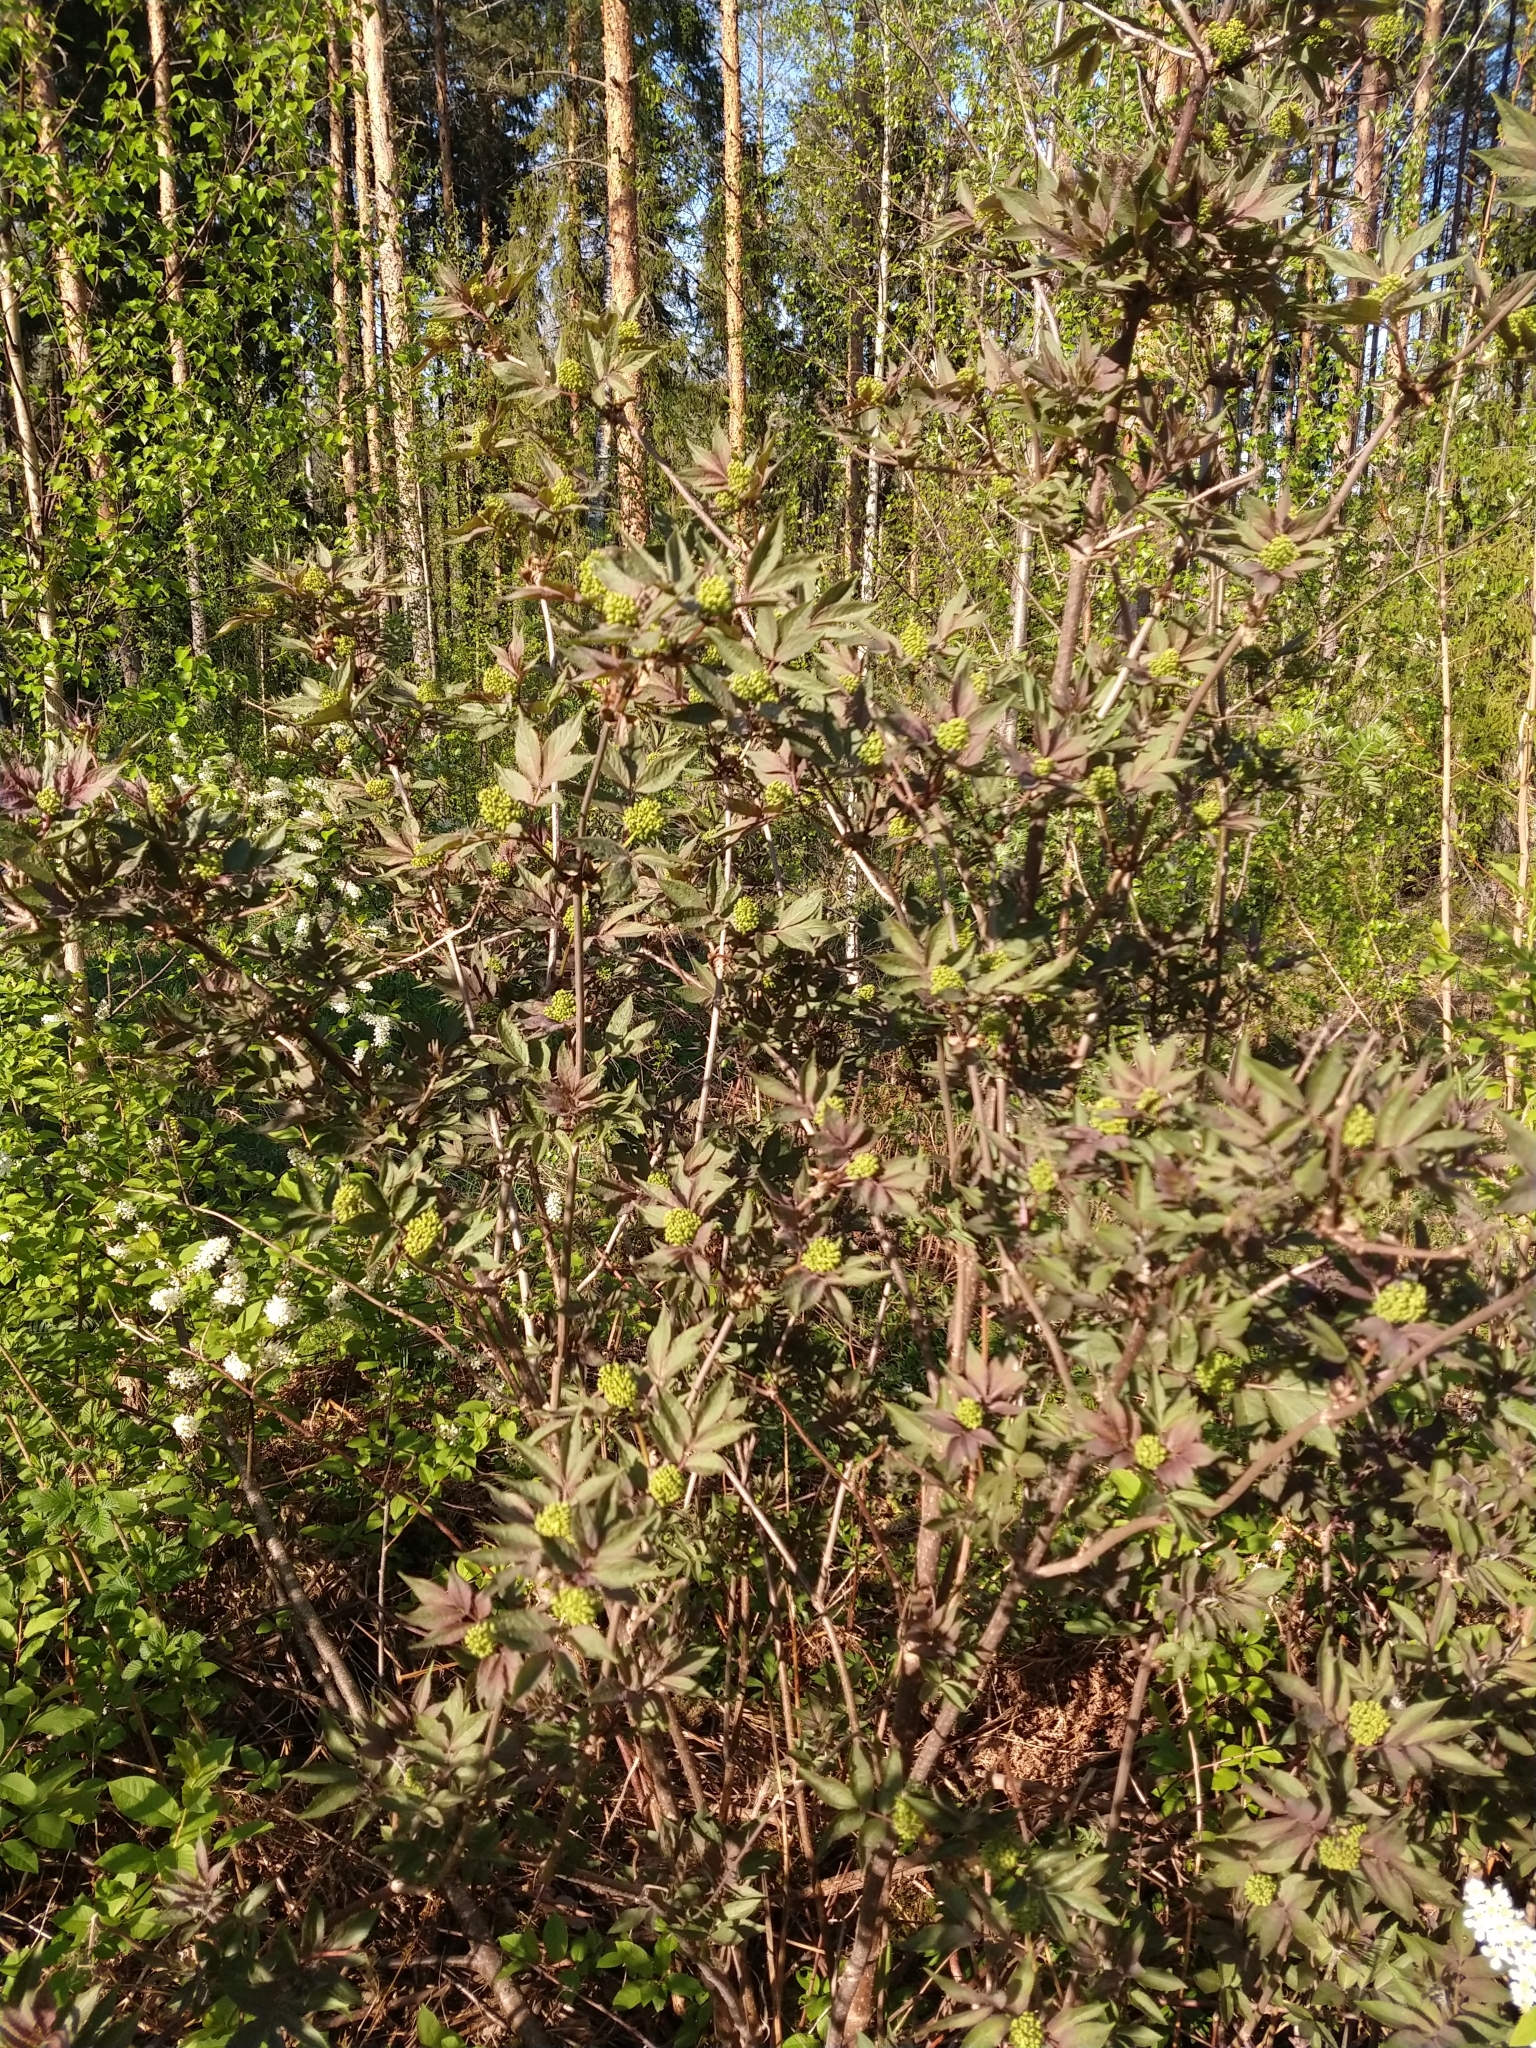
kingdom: Plantae
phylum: Tracheophyta
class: Magnoliopsida
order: Dipsacales
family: Viburnaceae
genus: Sambucus
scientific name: Sambucus racemosa
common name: Red-berried elder
